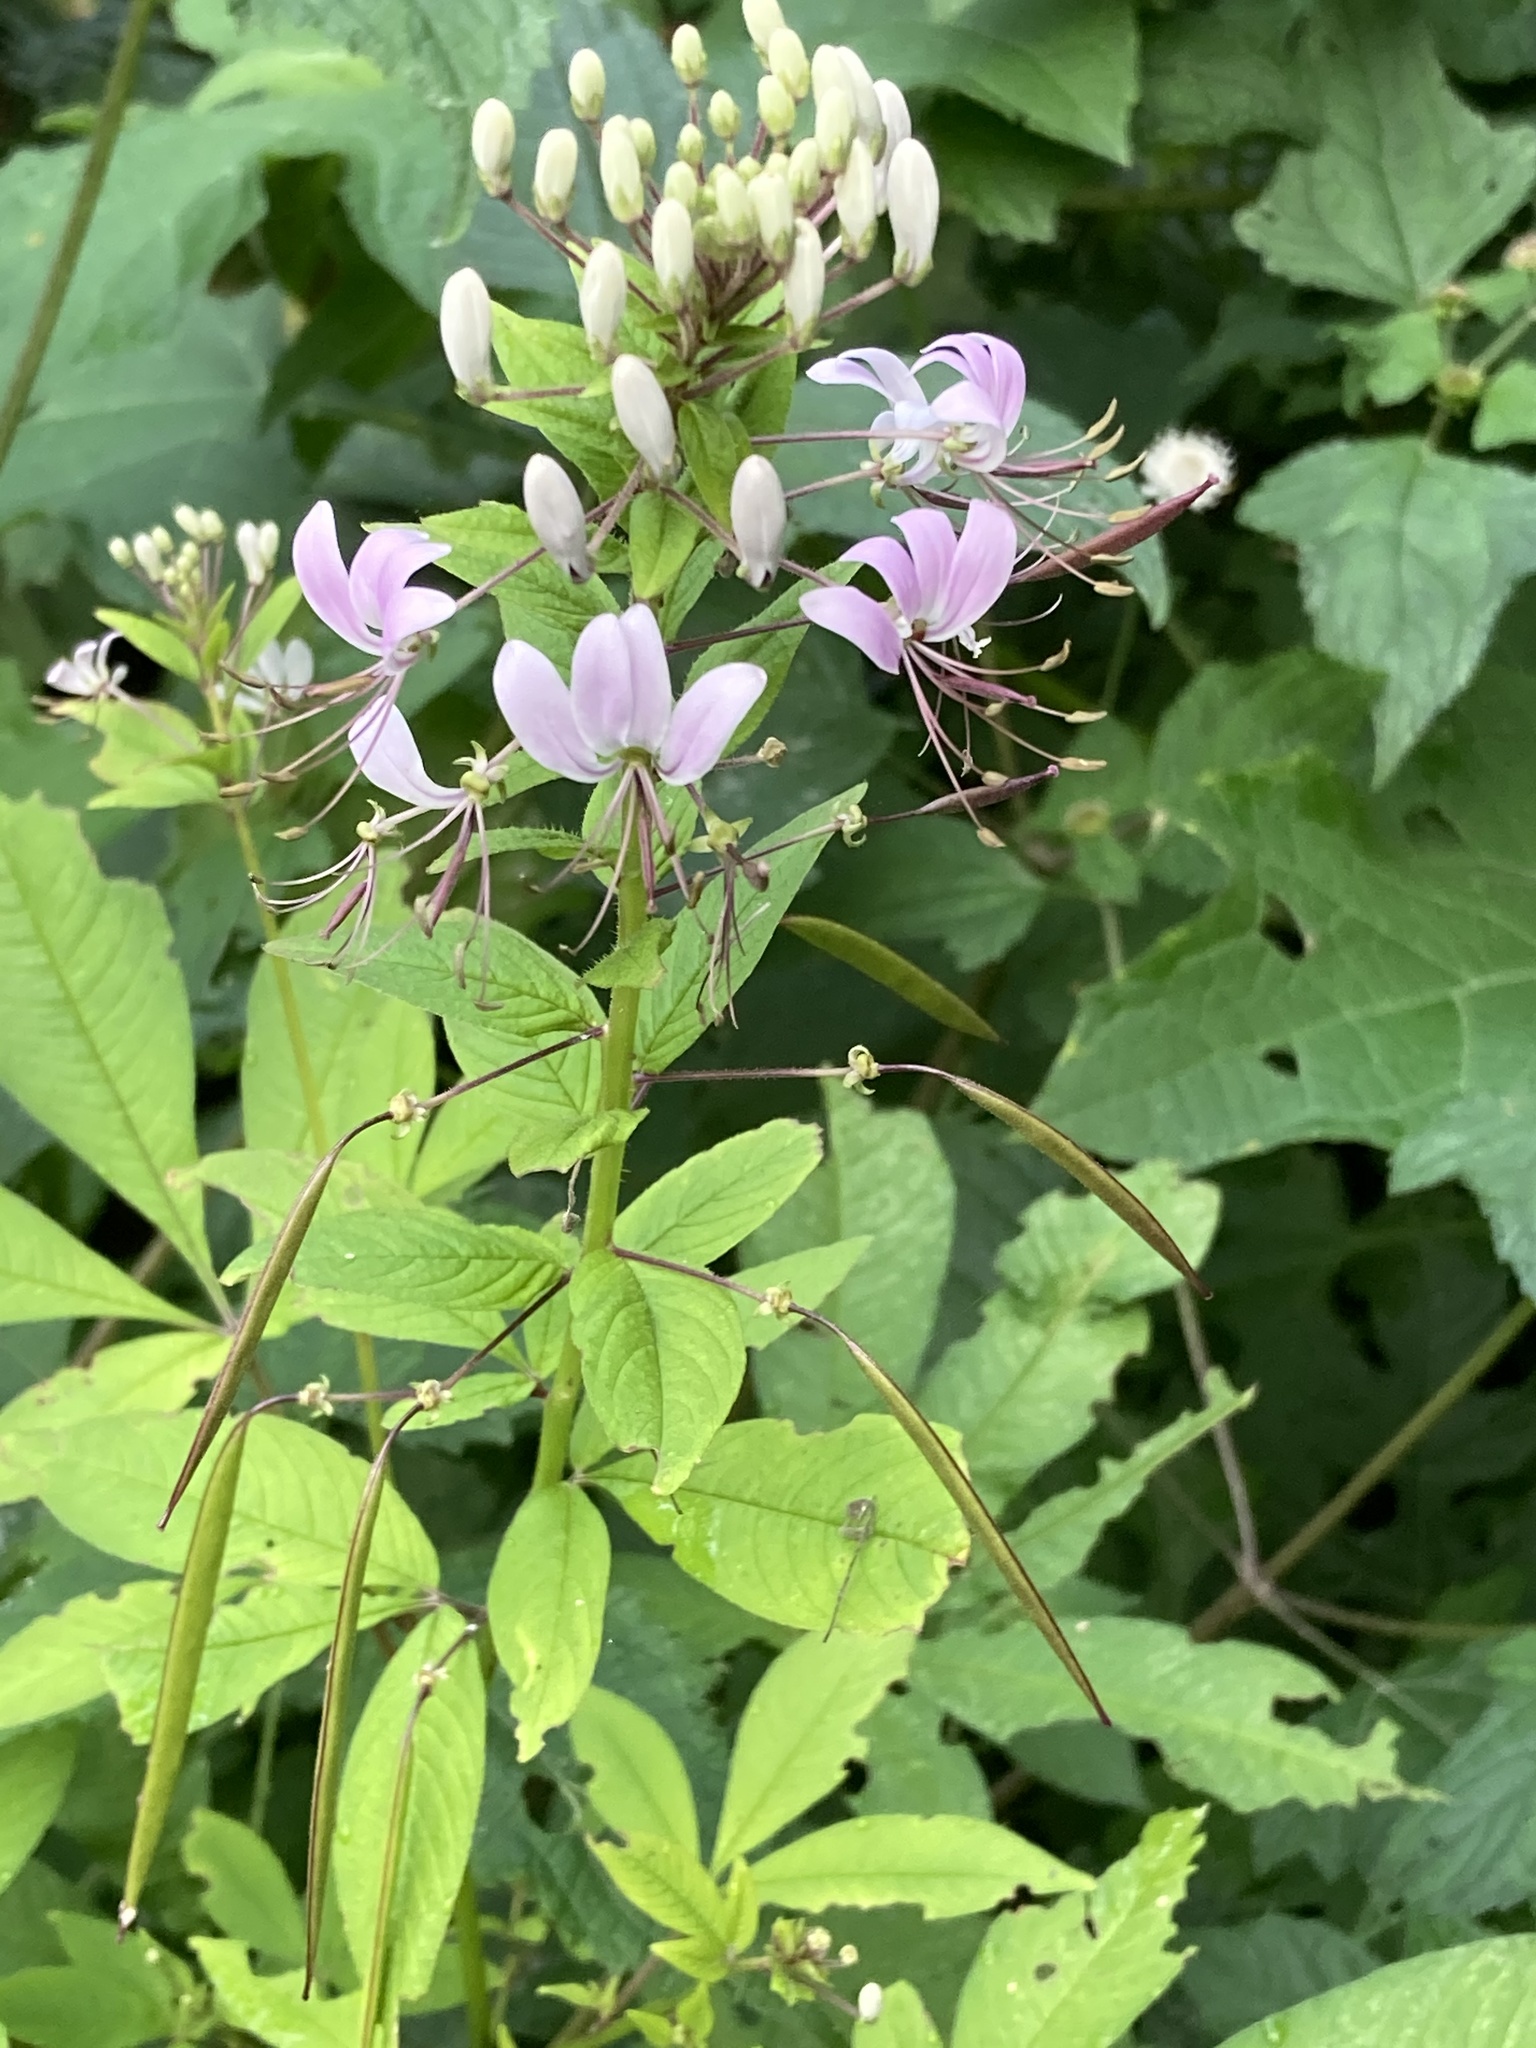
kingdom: Plantae
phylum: Tracheophyta
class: Magnoliopsida
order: Brassicales
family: Cleomaceae
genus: Cochranella
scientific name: Cochranella pilosa
